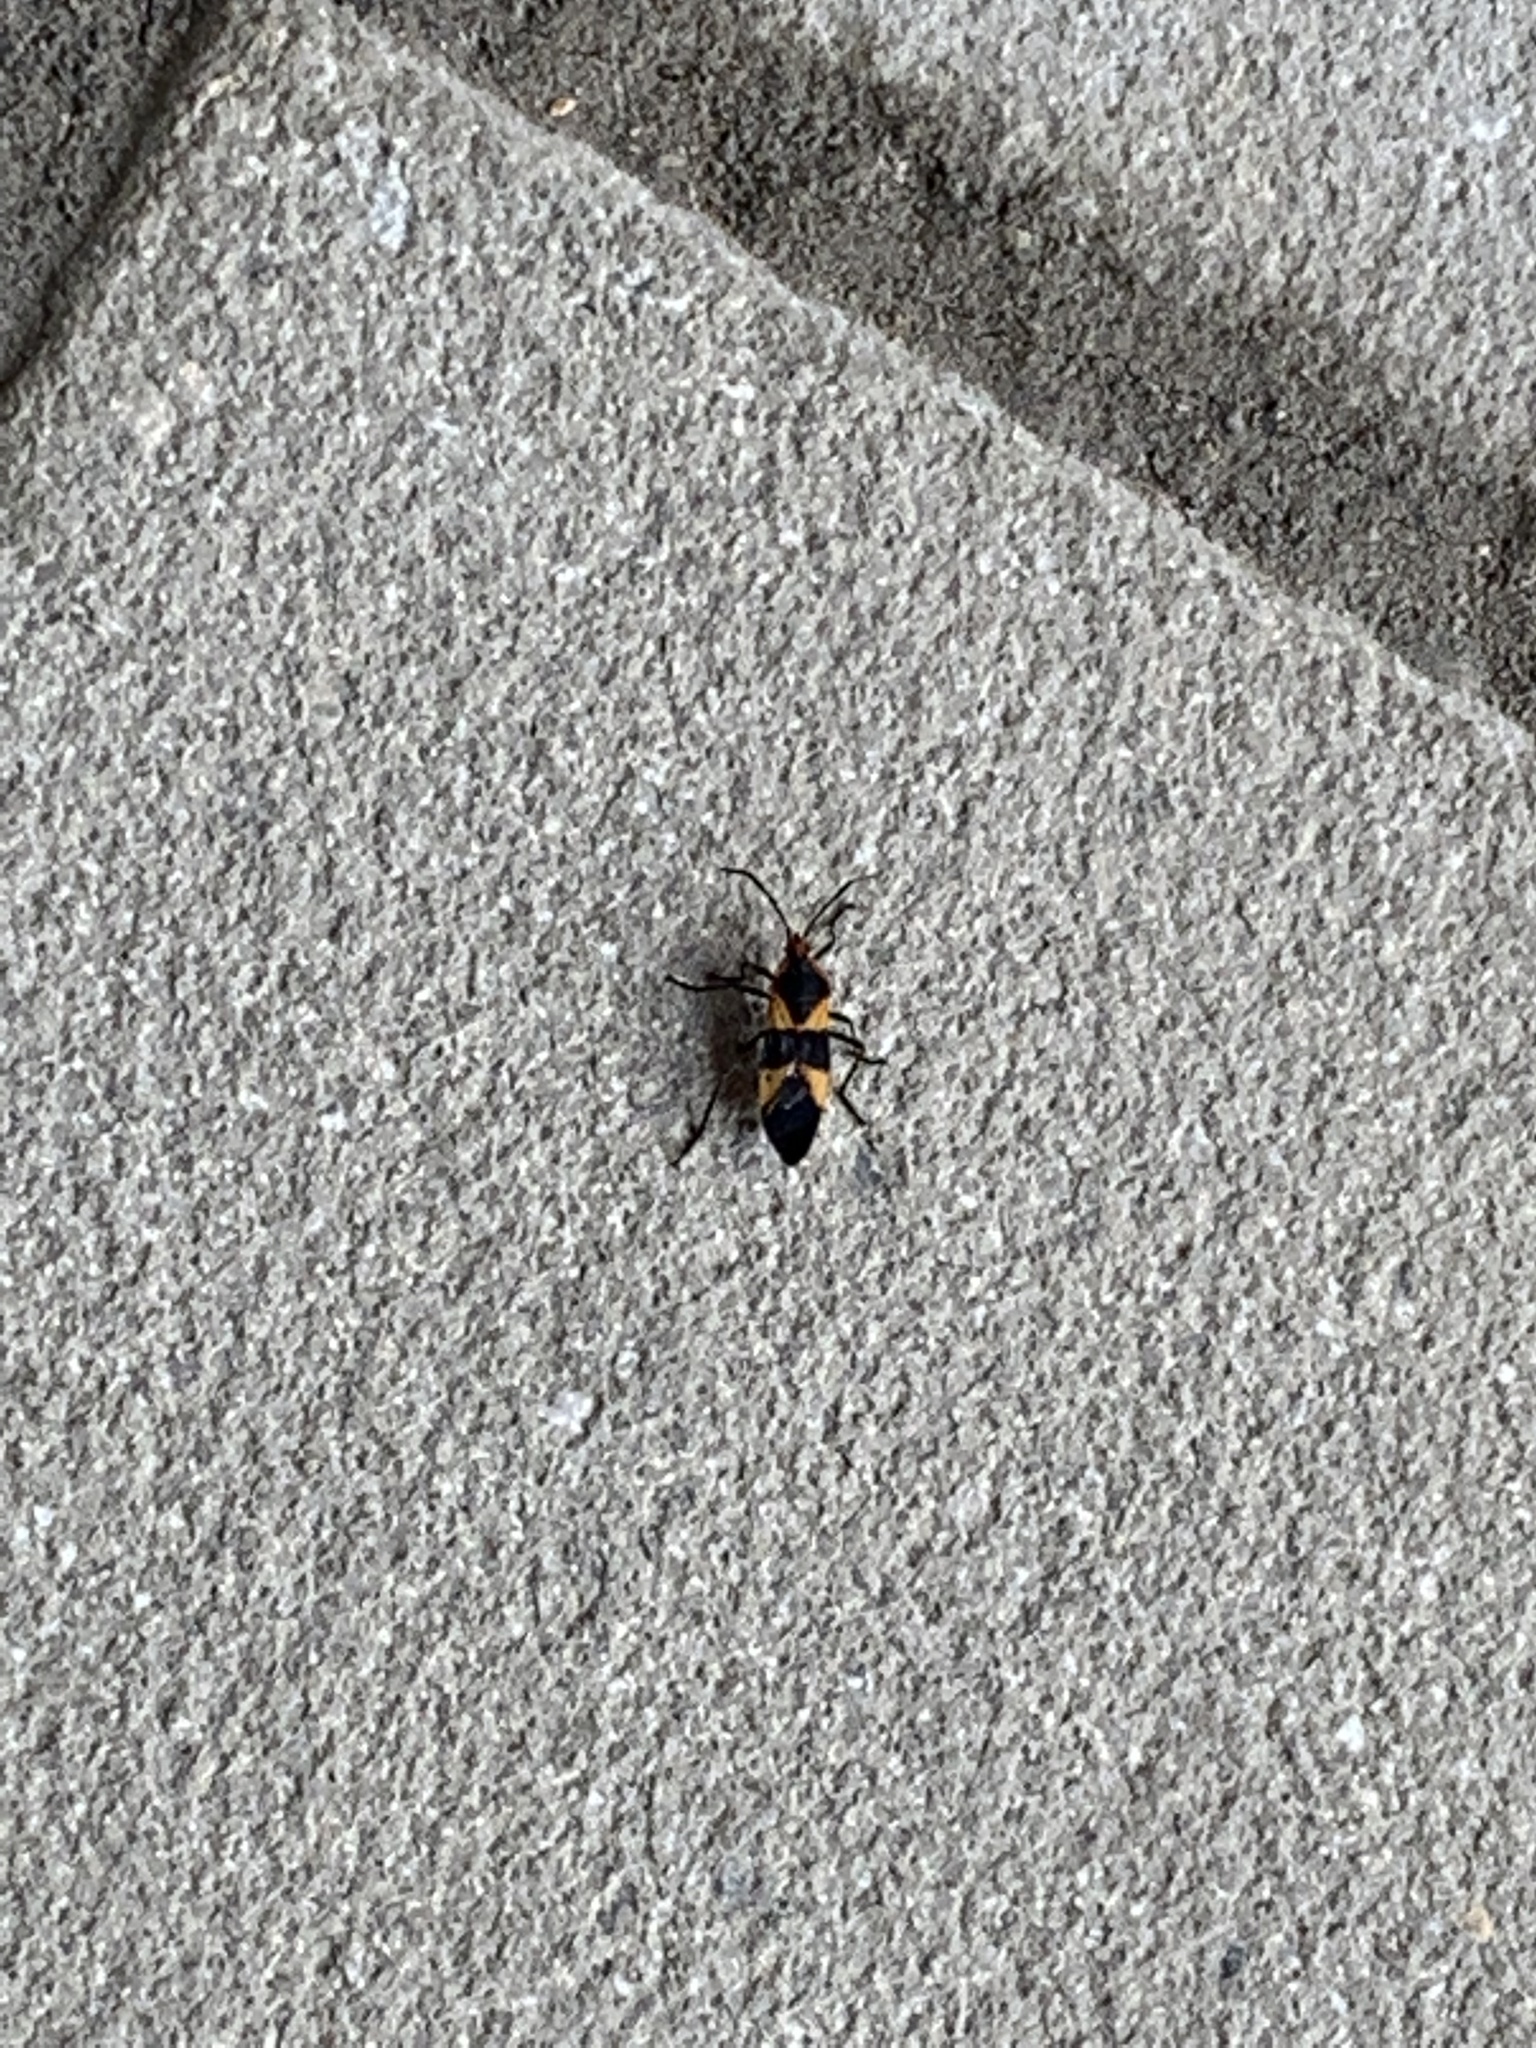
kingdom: Animalia
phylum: Arthropoda
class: Insecta
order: Hemiptera
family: Lygaeidae
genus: Oncopeltus
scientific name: Oncopeltus fasciatus
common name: Large milkweed bug
